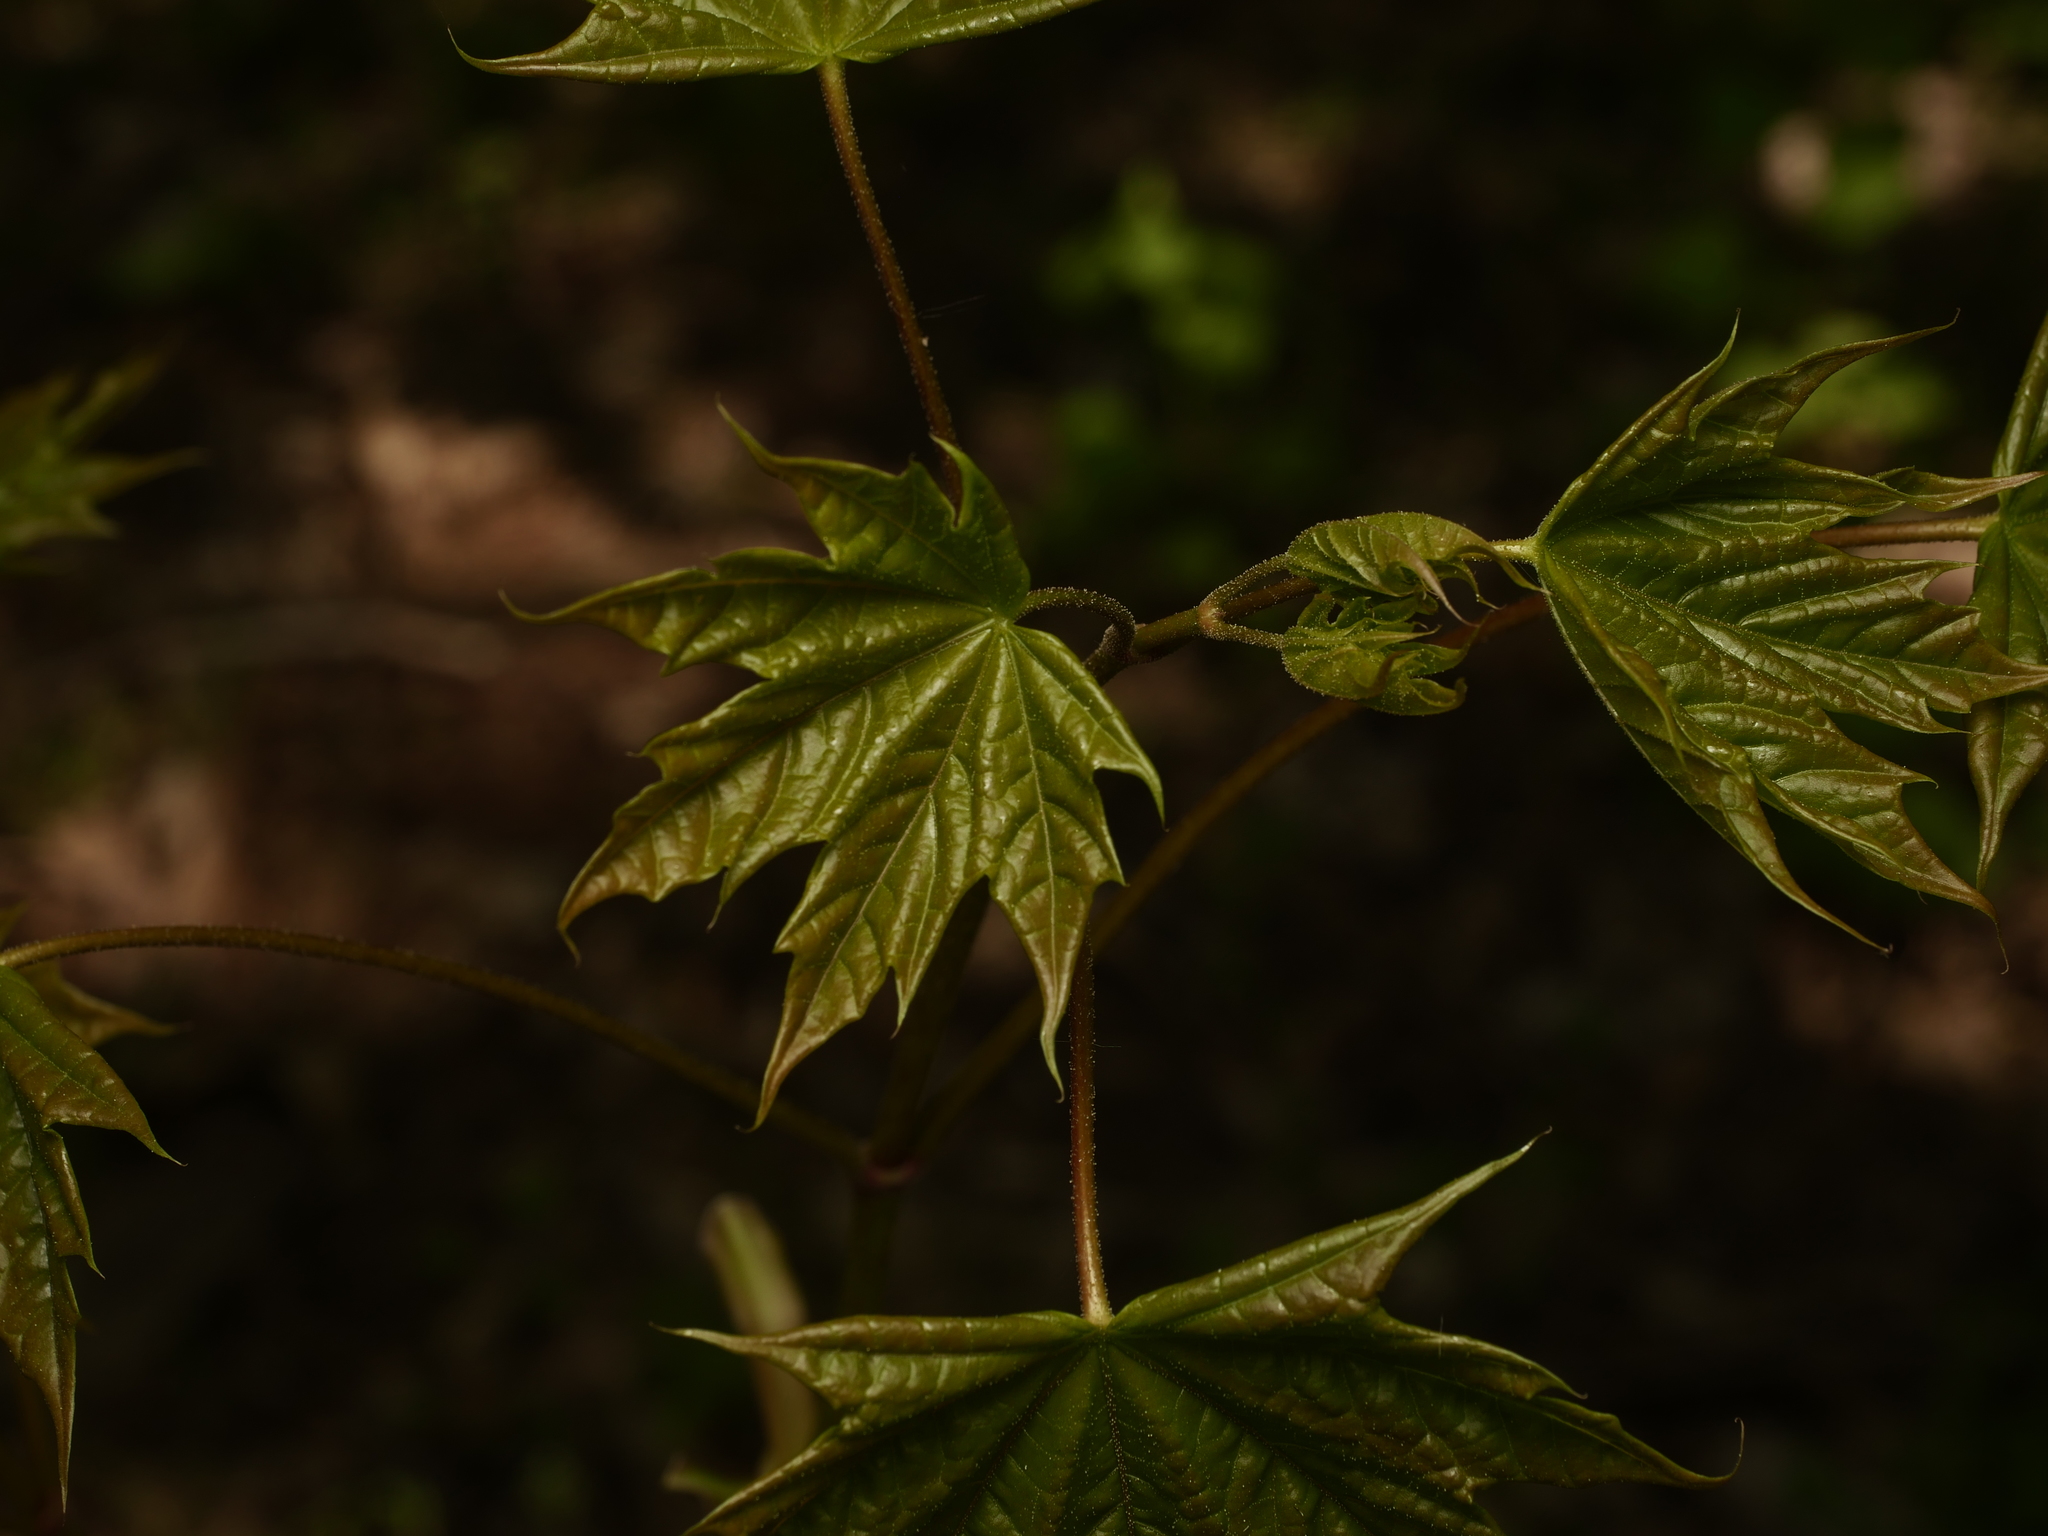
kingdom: Plantae
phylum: Tracheophyta
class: Magnoliopsida
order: Sapindales
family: Sapindaceae
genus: Acer
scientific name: Acer platanoides
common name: Norway maple
